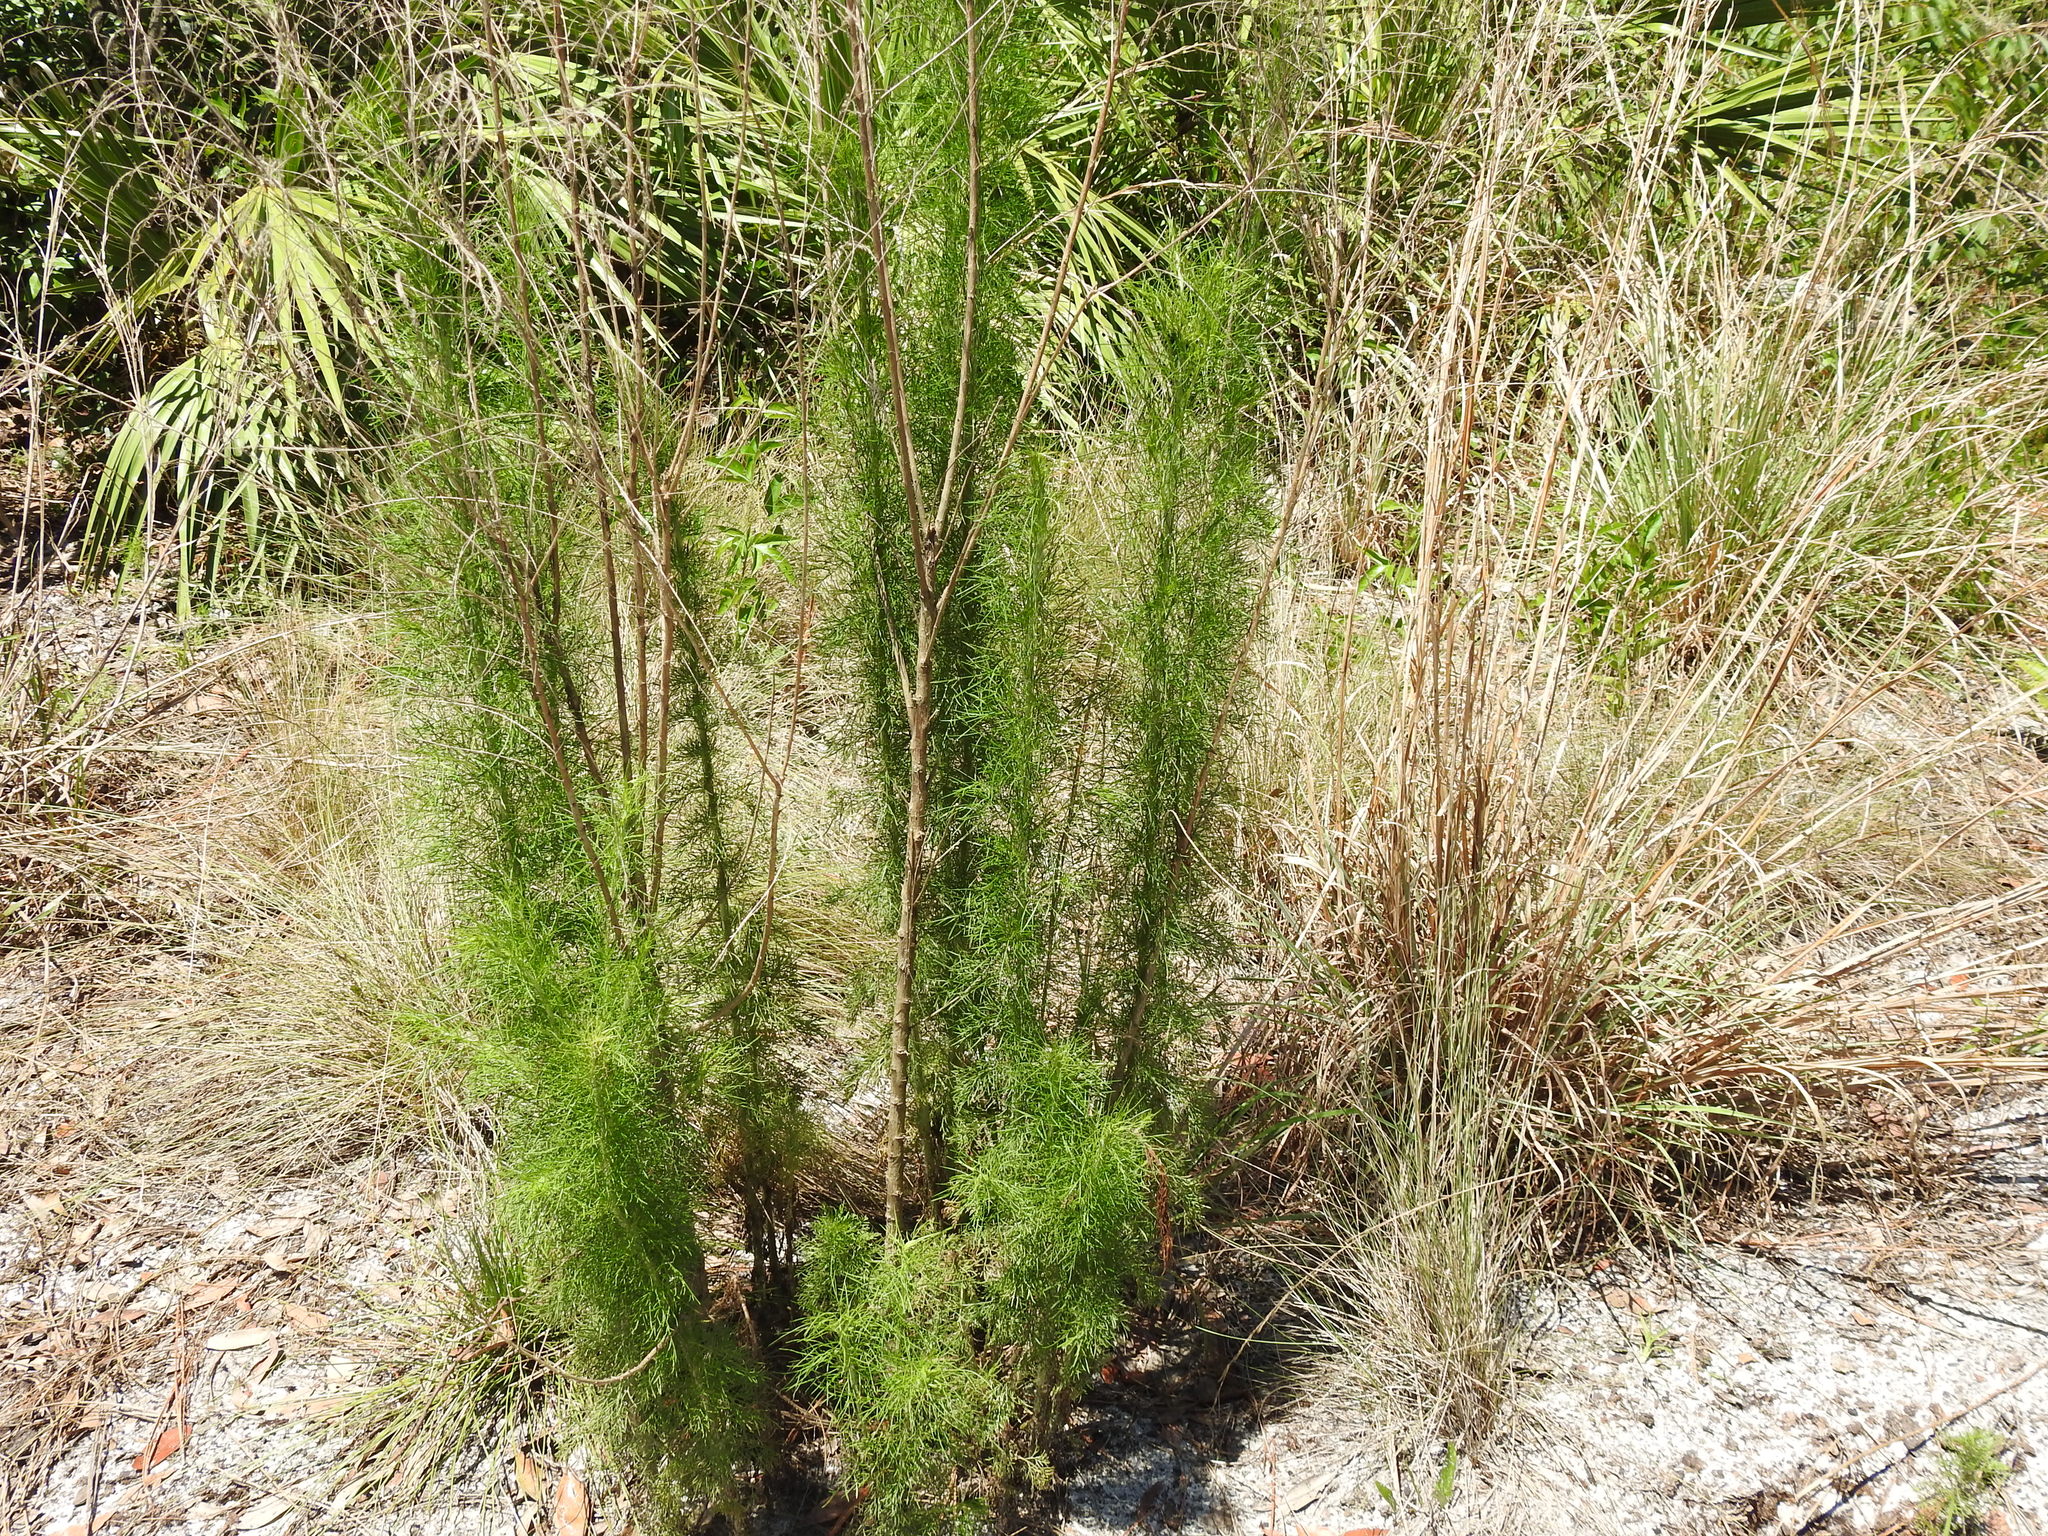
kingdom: Plantae
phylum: Tracheophyta
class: Magnoliopsida
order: Asterales
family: Asteraceae
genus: Eupatorium
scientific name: Eupatorium capillifolium
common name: Dog-fennel
